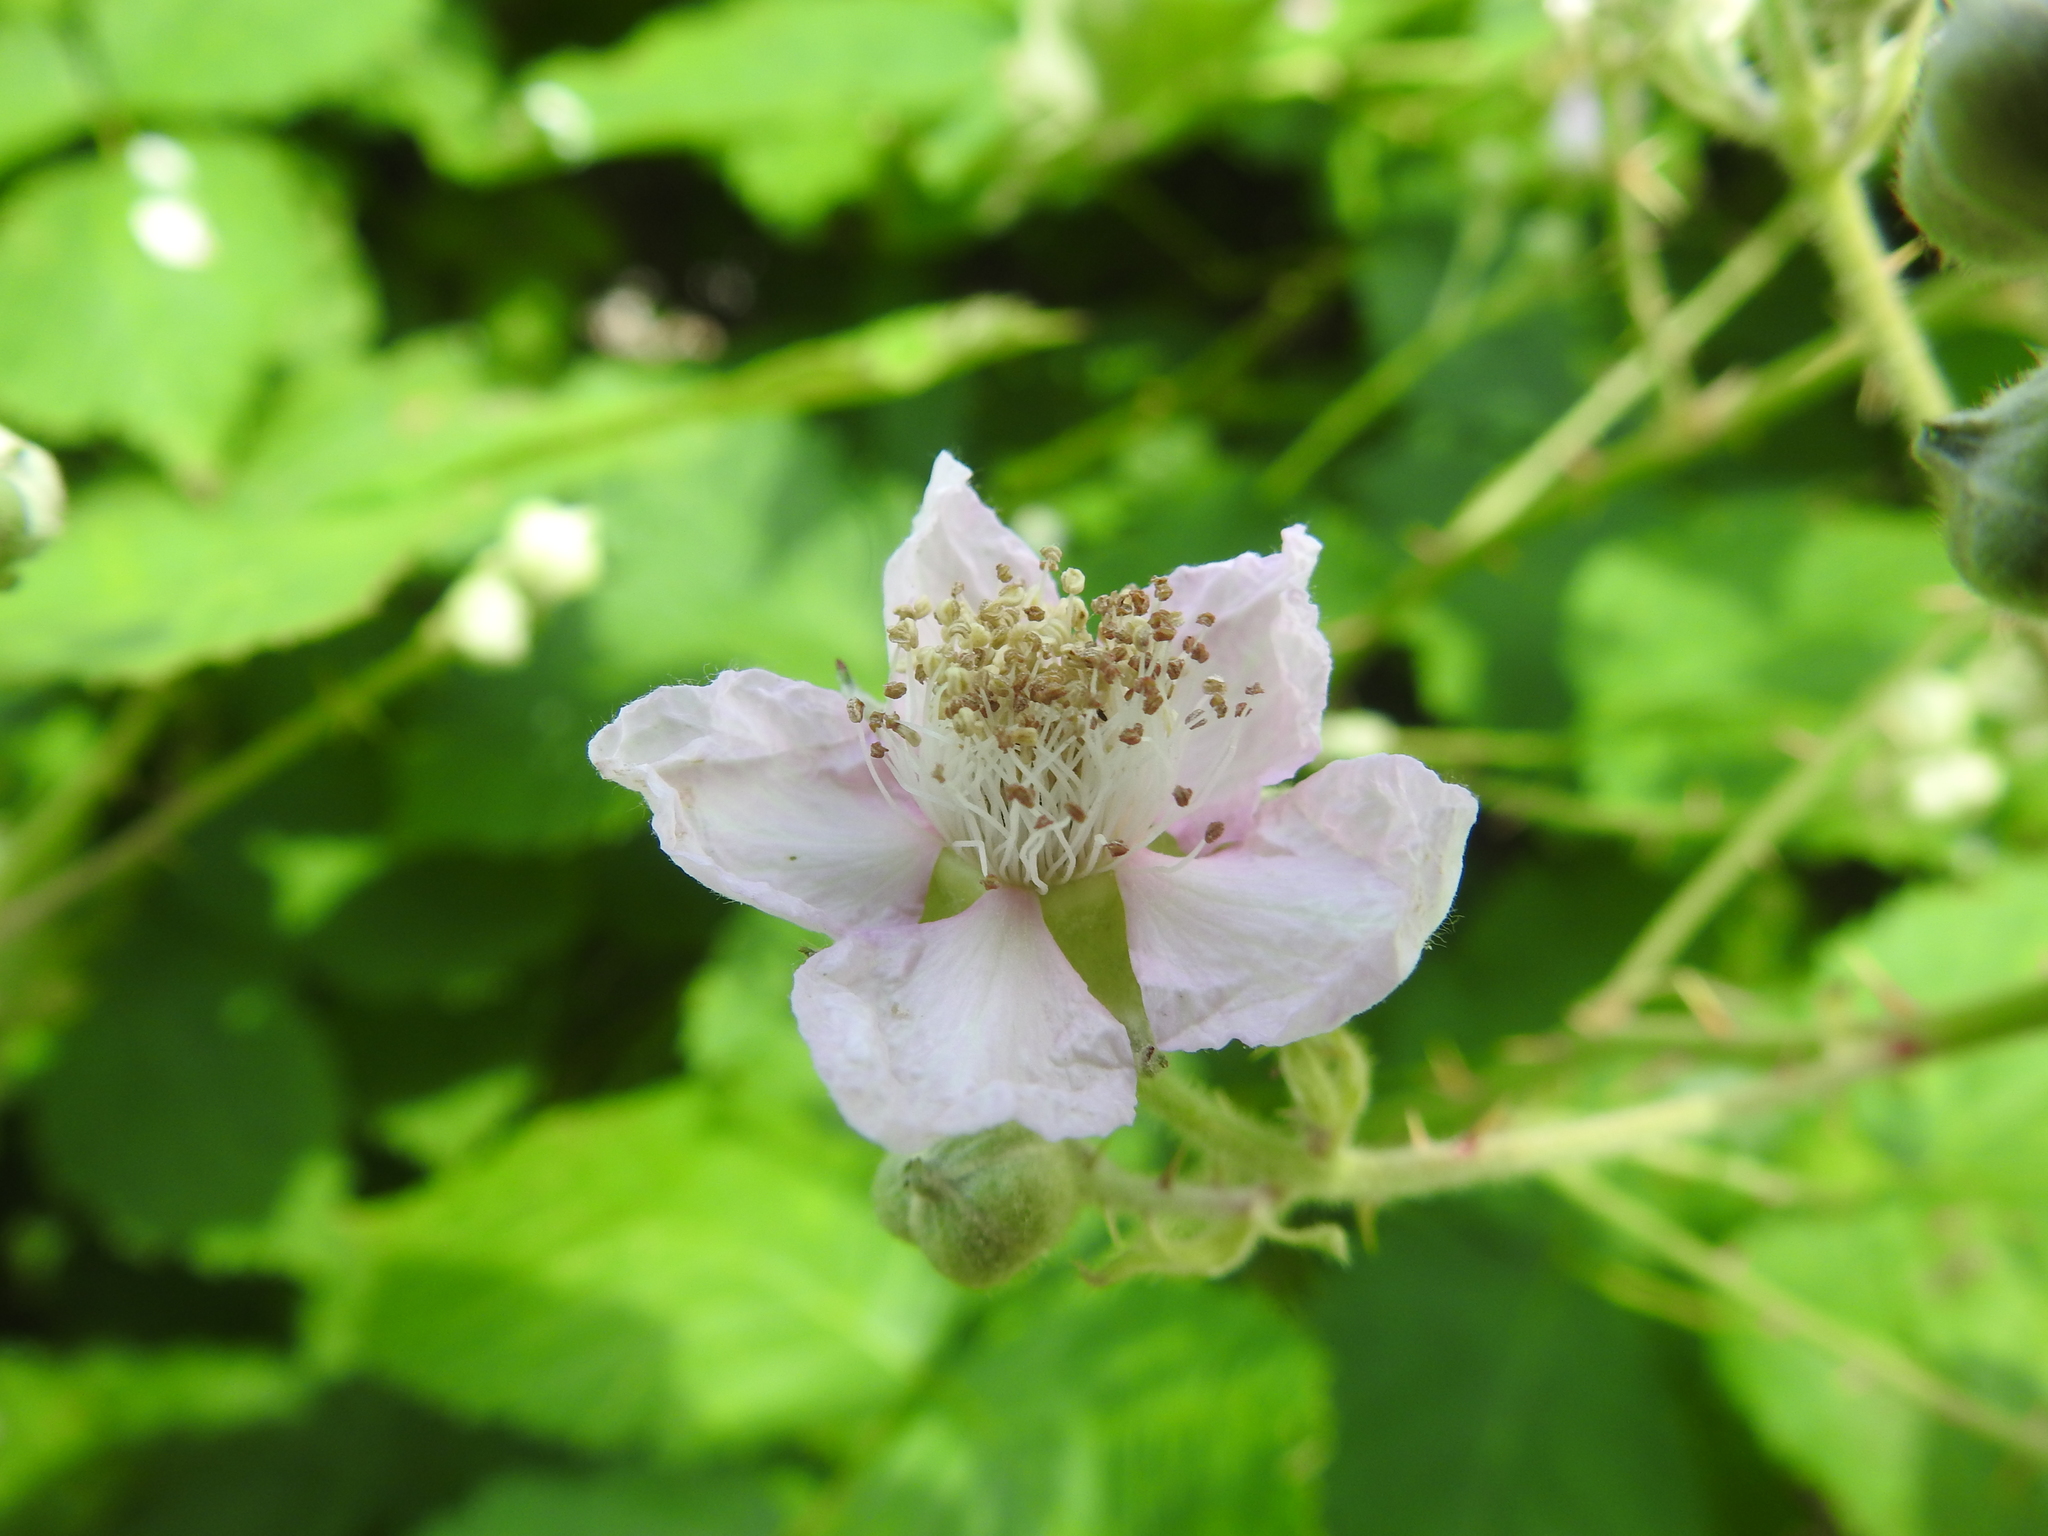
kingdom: Plantae
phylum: Tracheophyta
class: Magnoliopsida
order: Rosales
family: Rosaceae
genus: Rubus
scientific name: Rubus bifrons
